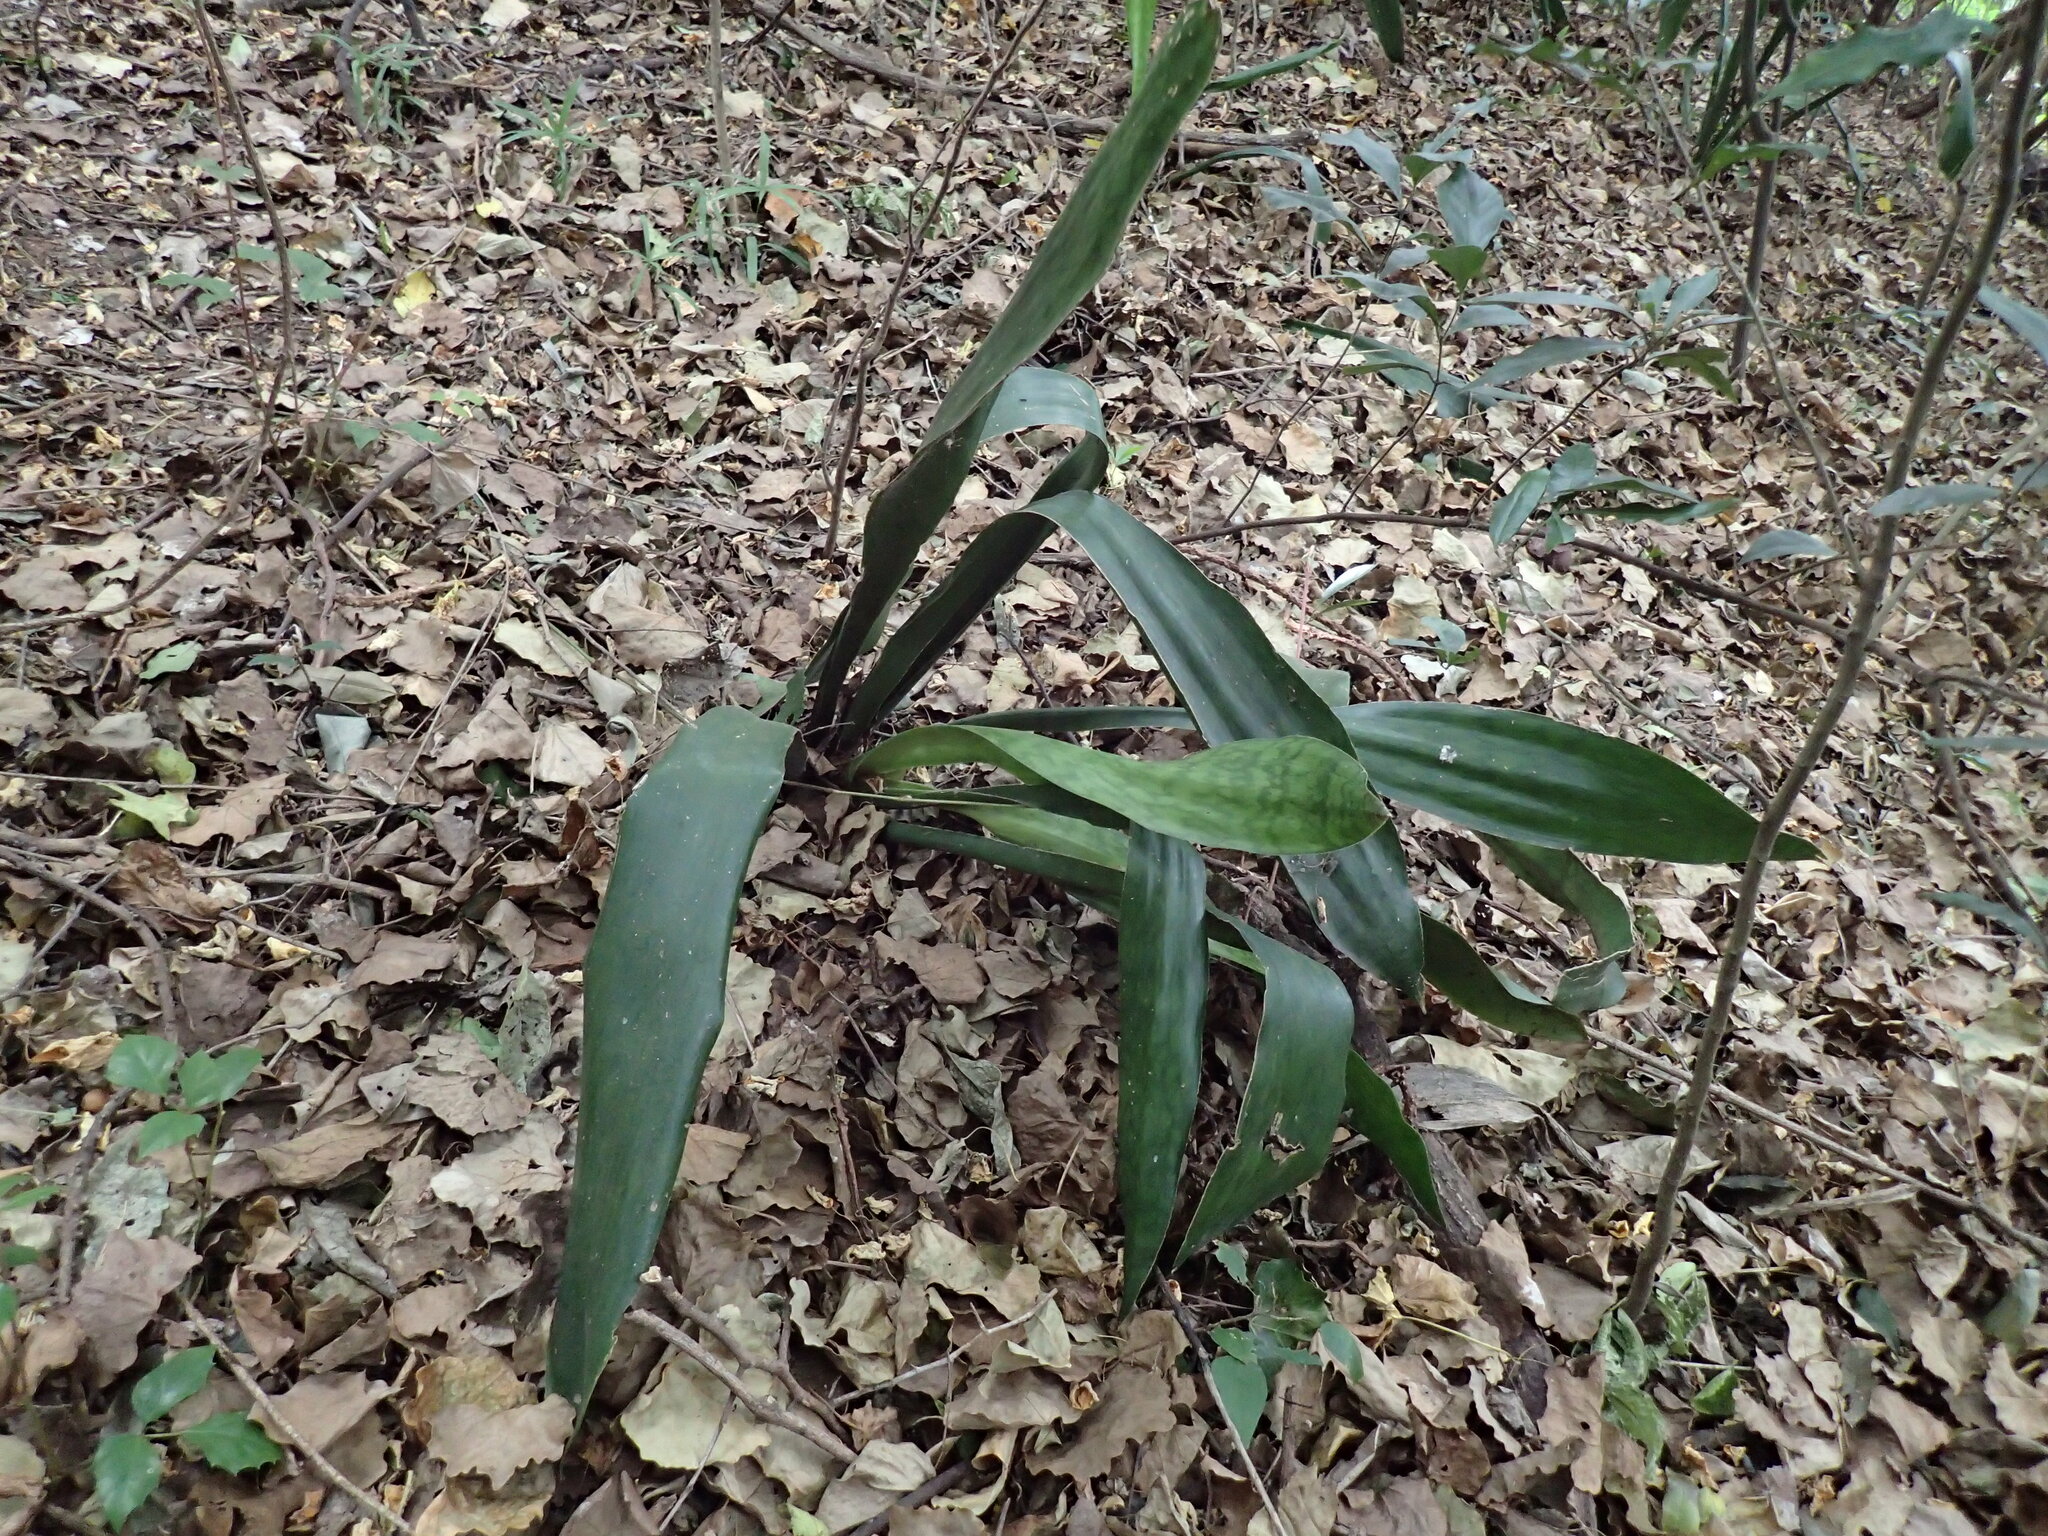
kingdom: Plantae
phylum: Tracheophyta
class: Liliopsida
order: Asparagales
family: Asparagaceae
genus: Dracaena
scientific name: Dracaena hyacinthoides
